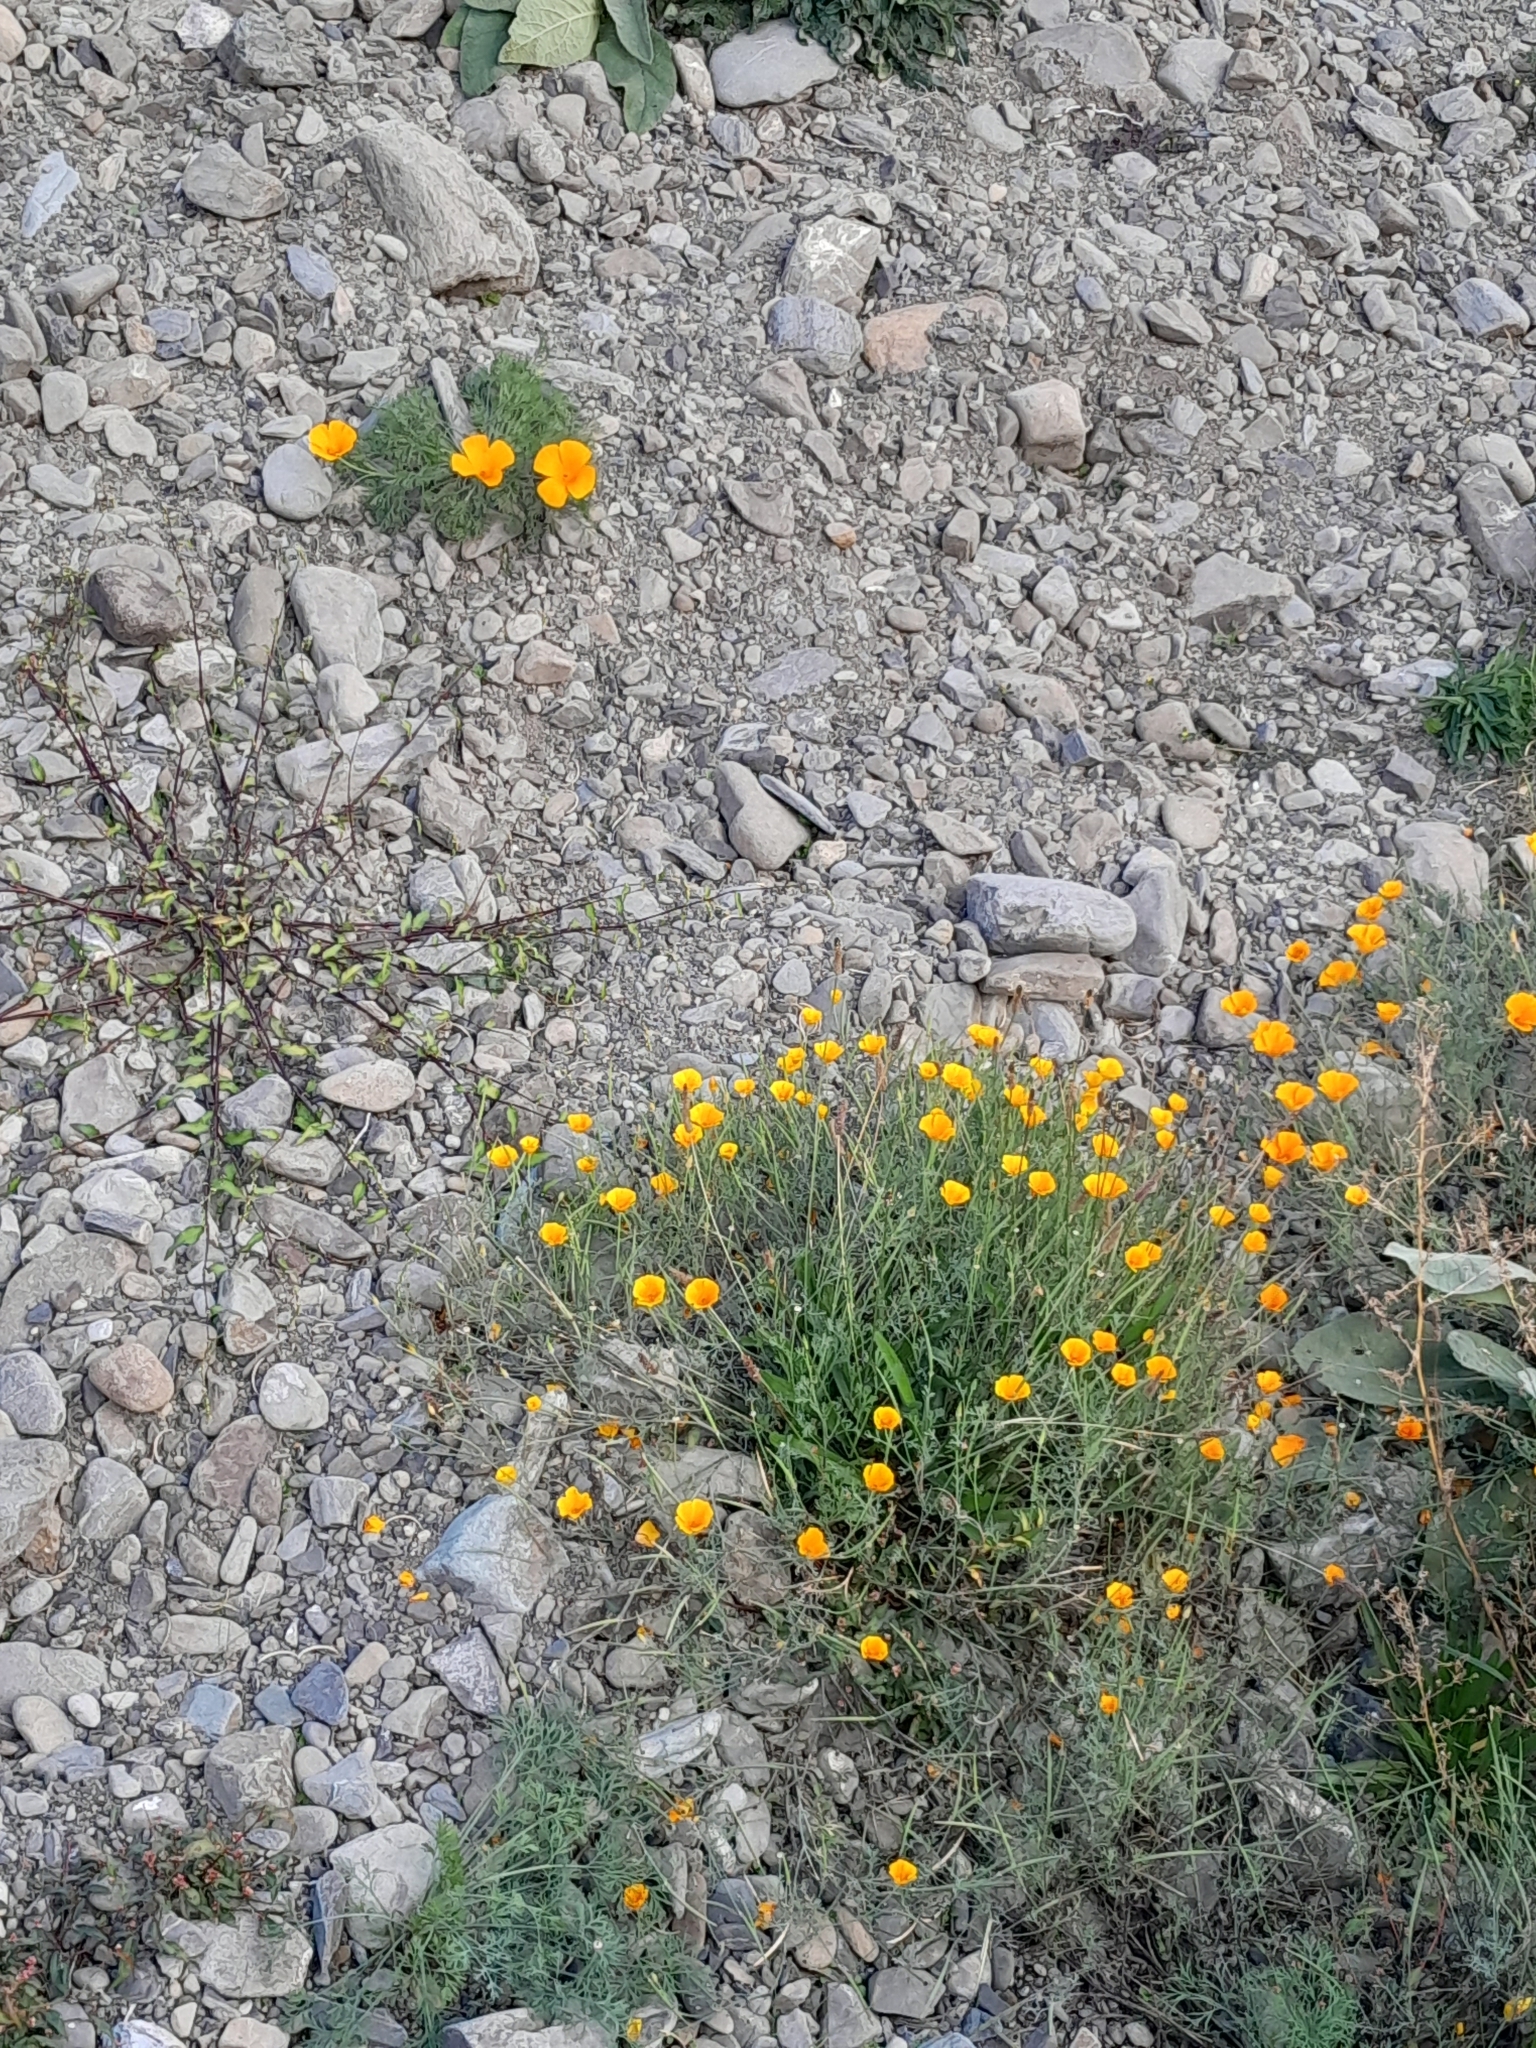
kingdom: Plantae
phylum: Tracheophyta
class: Magnoliopsida
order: Ranunculales
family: Papaveraceae
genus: Eschscholzia
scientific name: Eschscholzia californica
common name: California poppy
